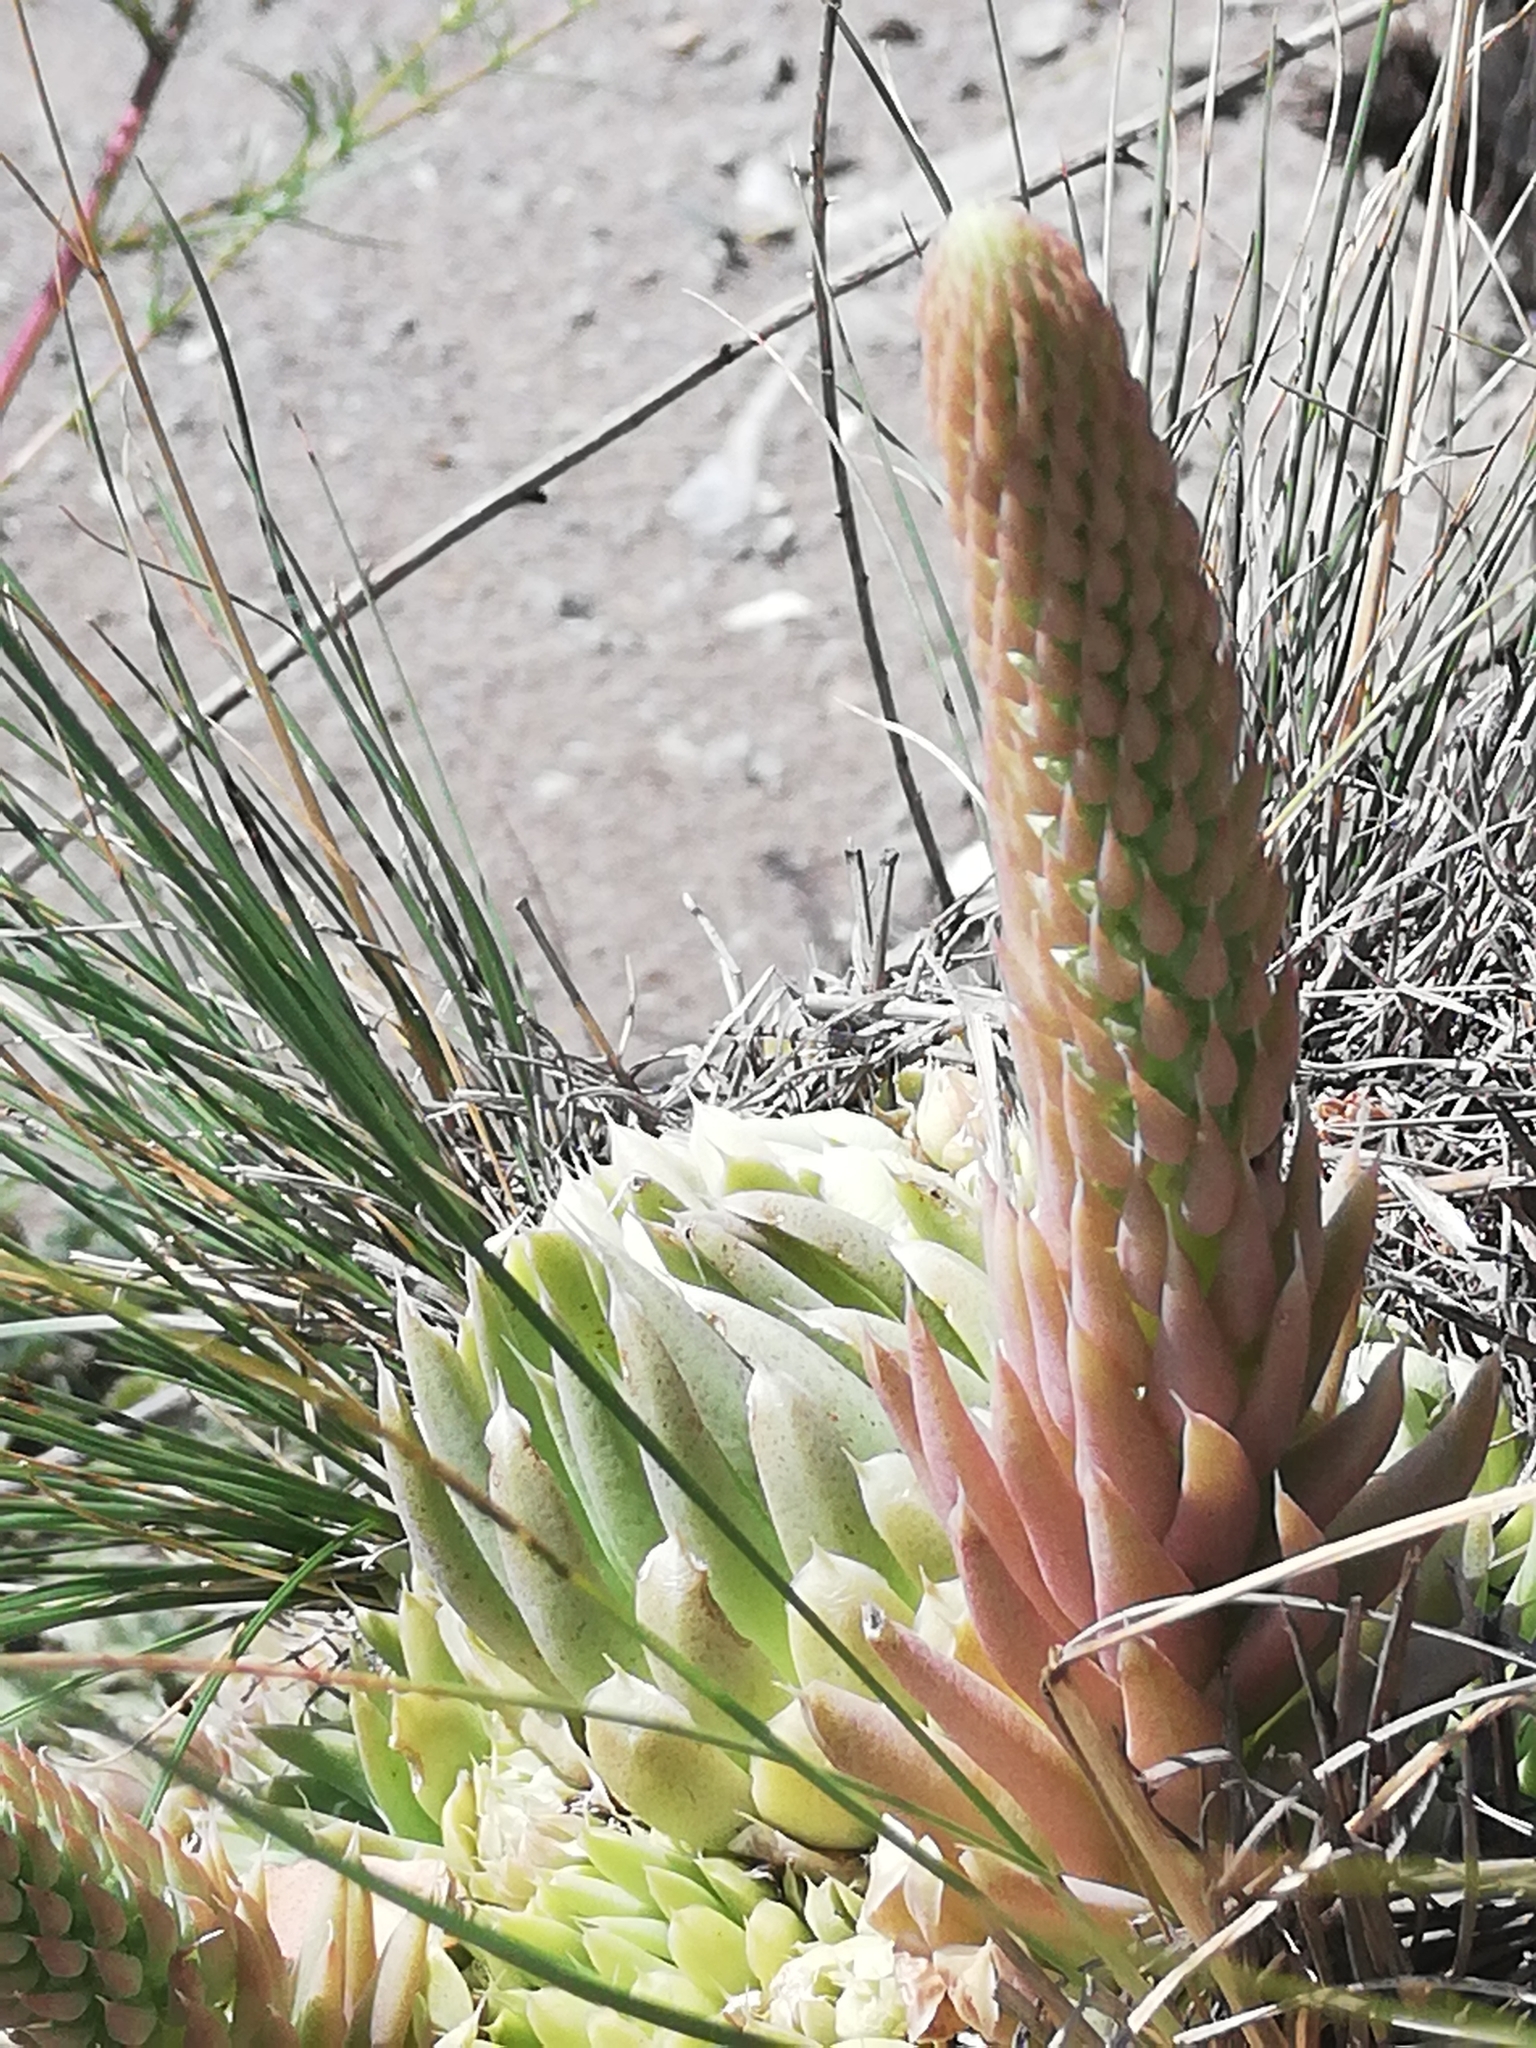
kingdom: Plantae
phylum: Tracheophyta
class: Magnoliopsida
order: Saxifragales
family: Crassulaceae
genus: Orostachys
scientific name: Orostachys spinosa
